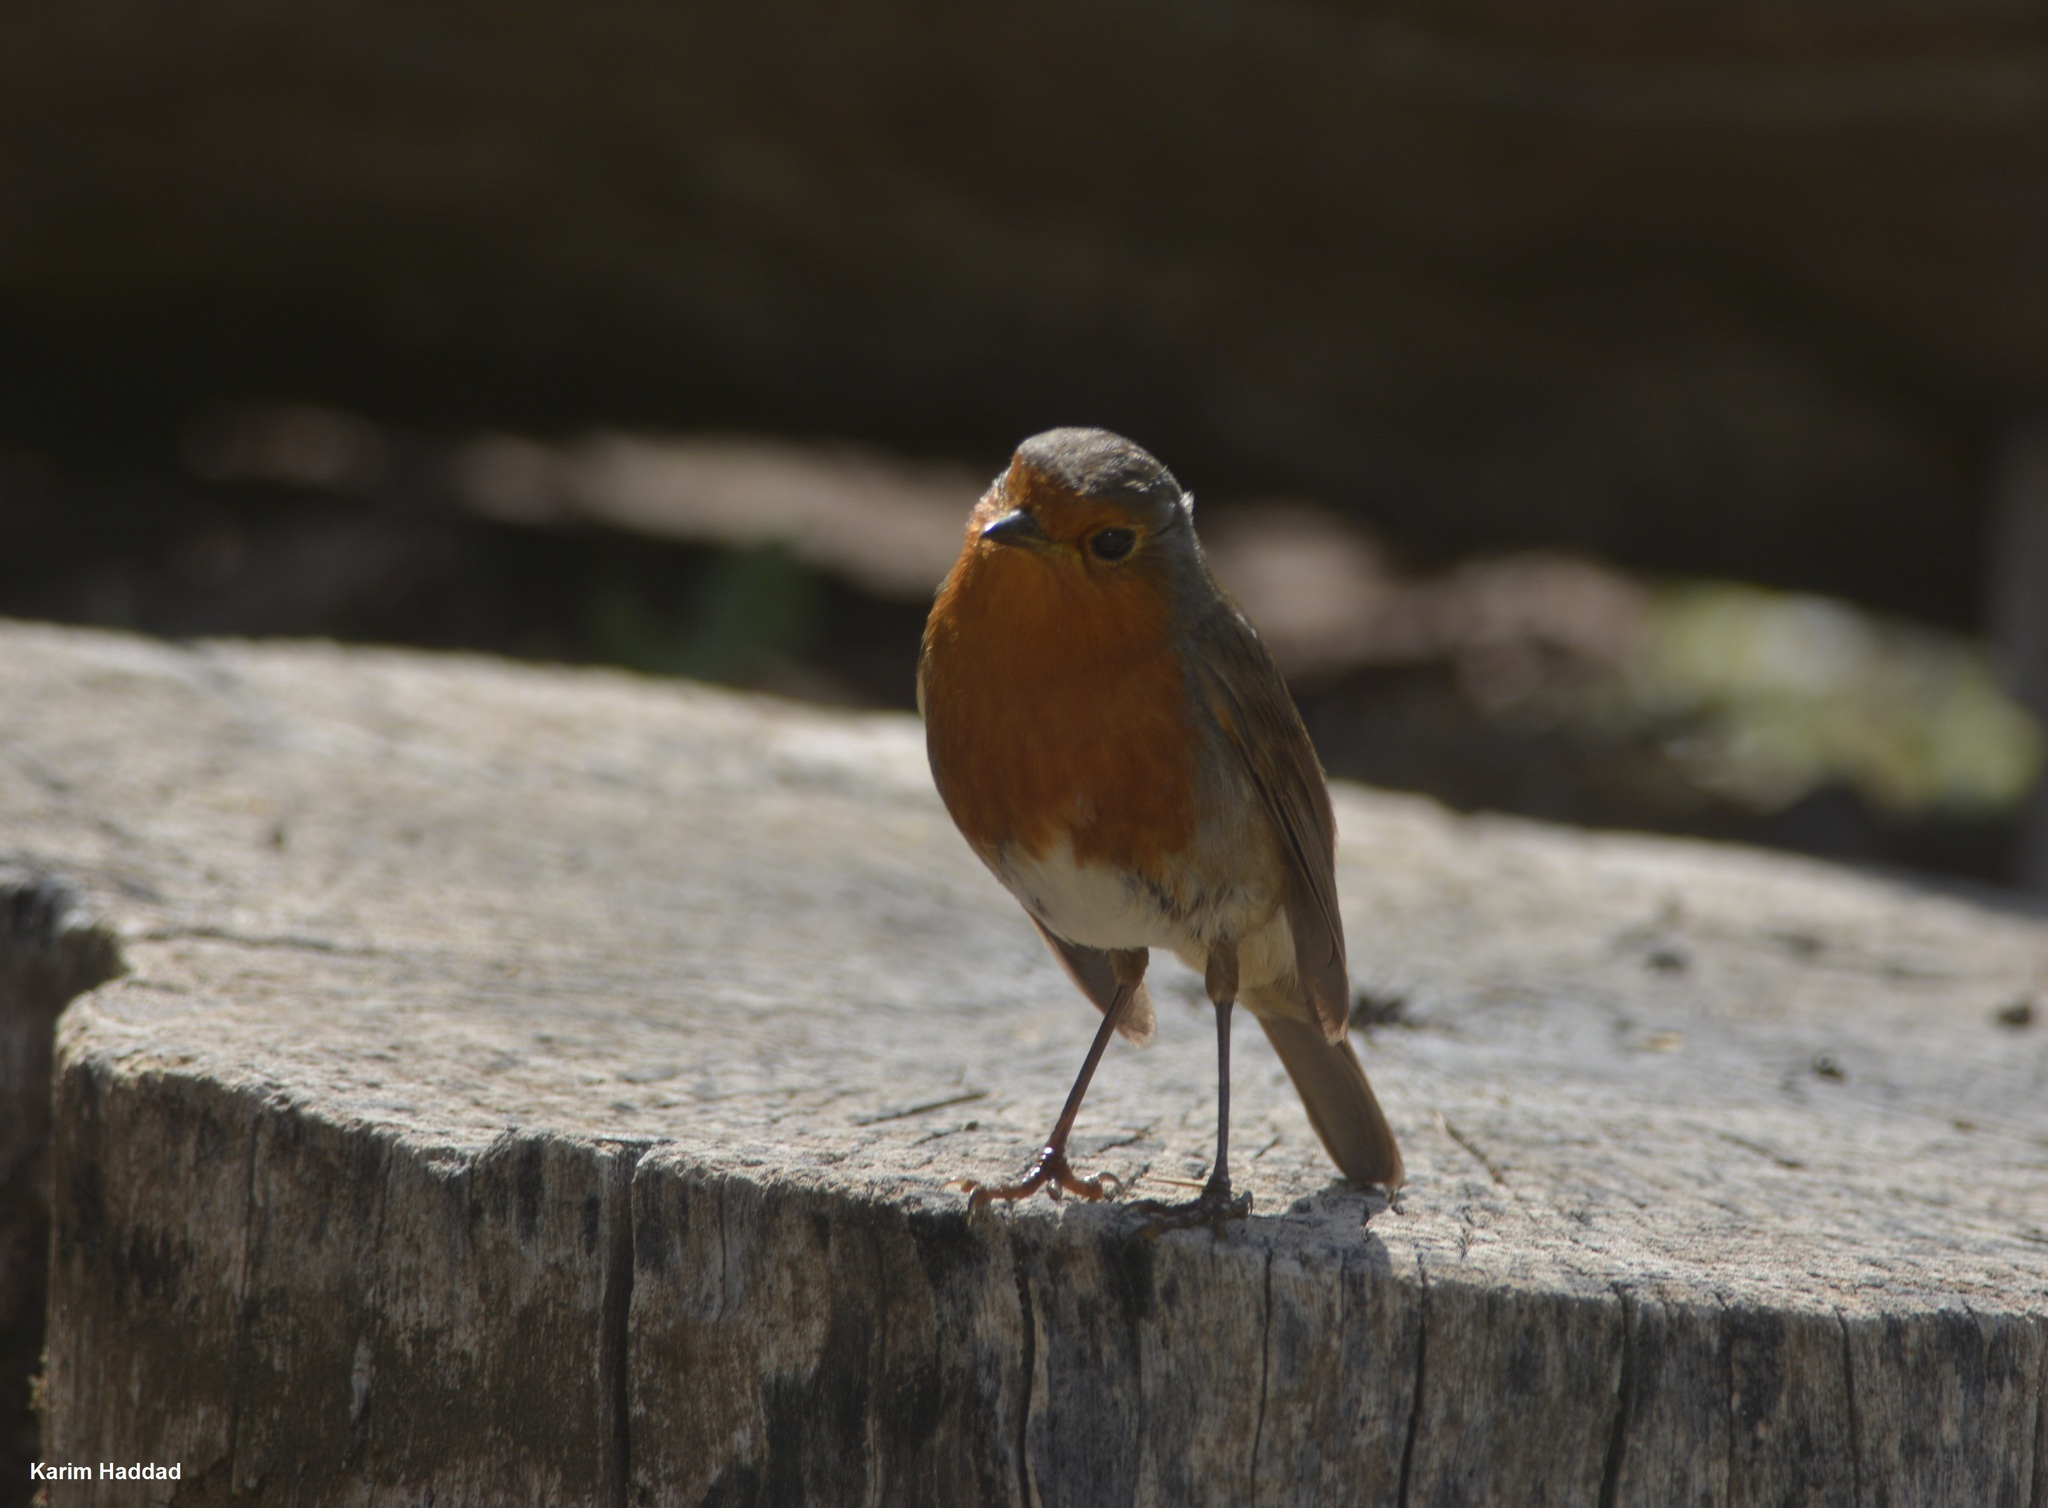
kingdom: Animalia
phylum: Chordata
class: Aves
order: Passeriformes
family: Muscicapidae
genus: Erithacus
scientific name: Erithacus rubecula
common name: European robin
